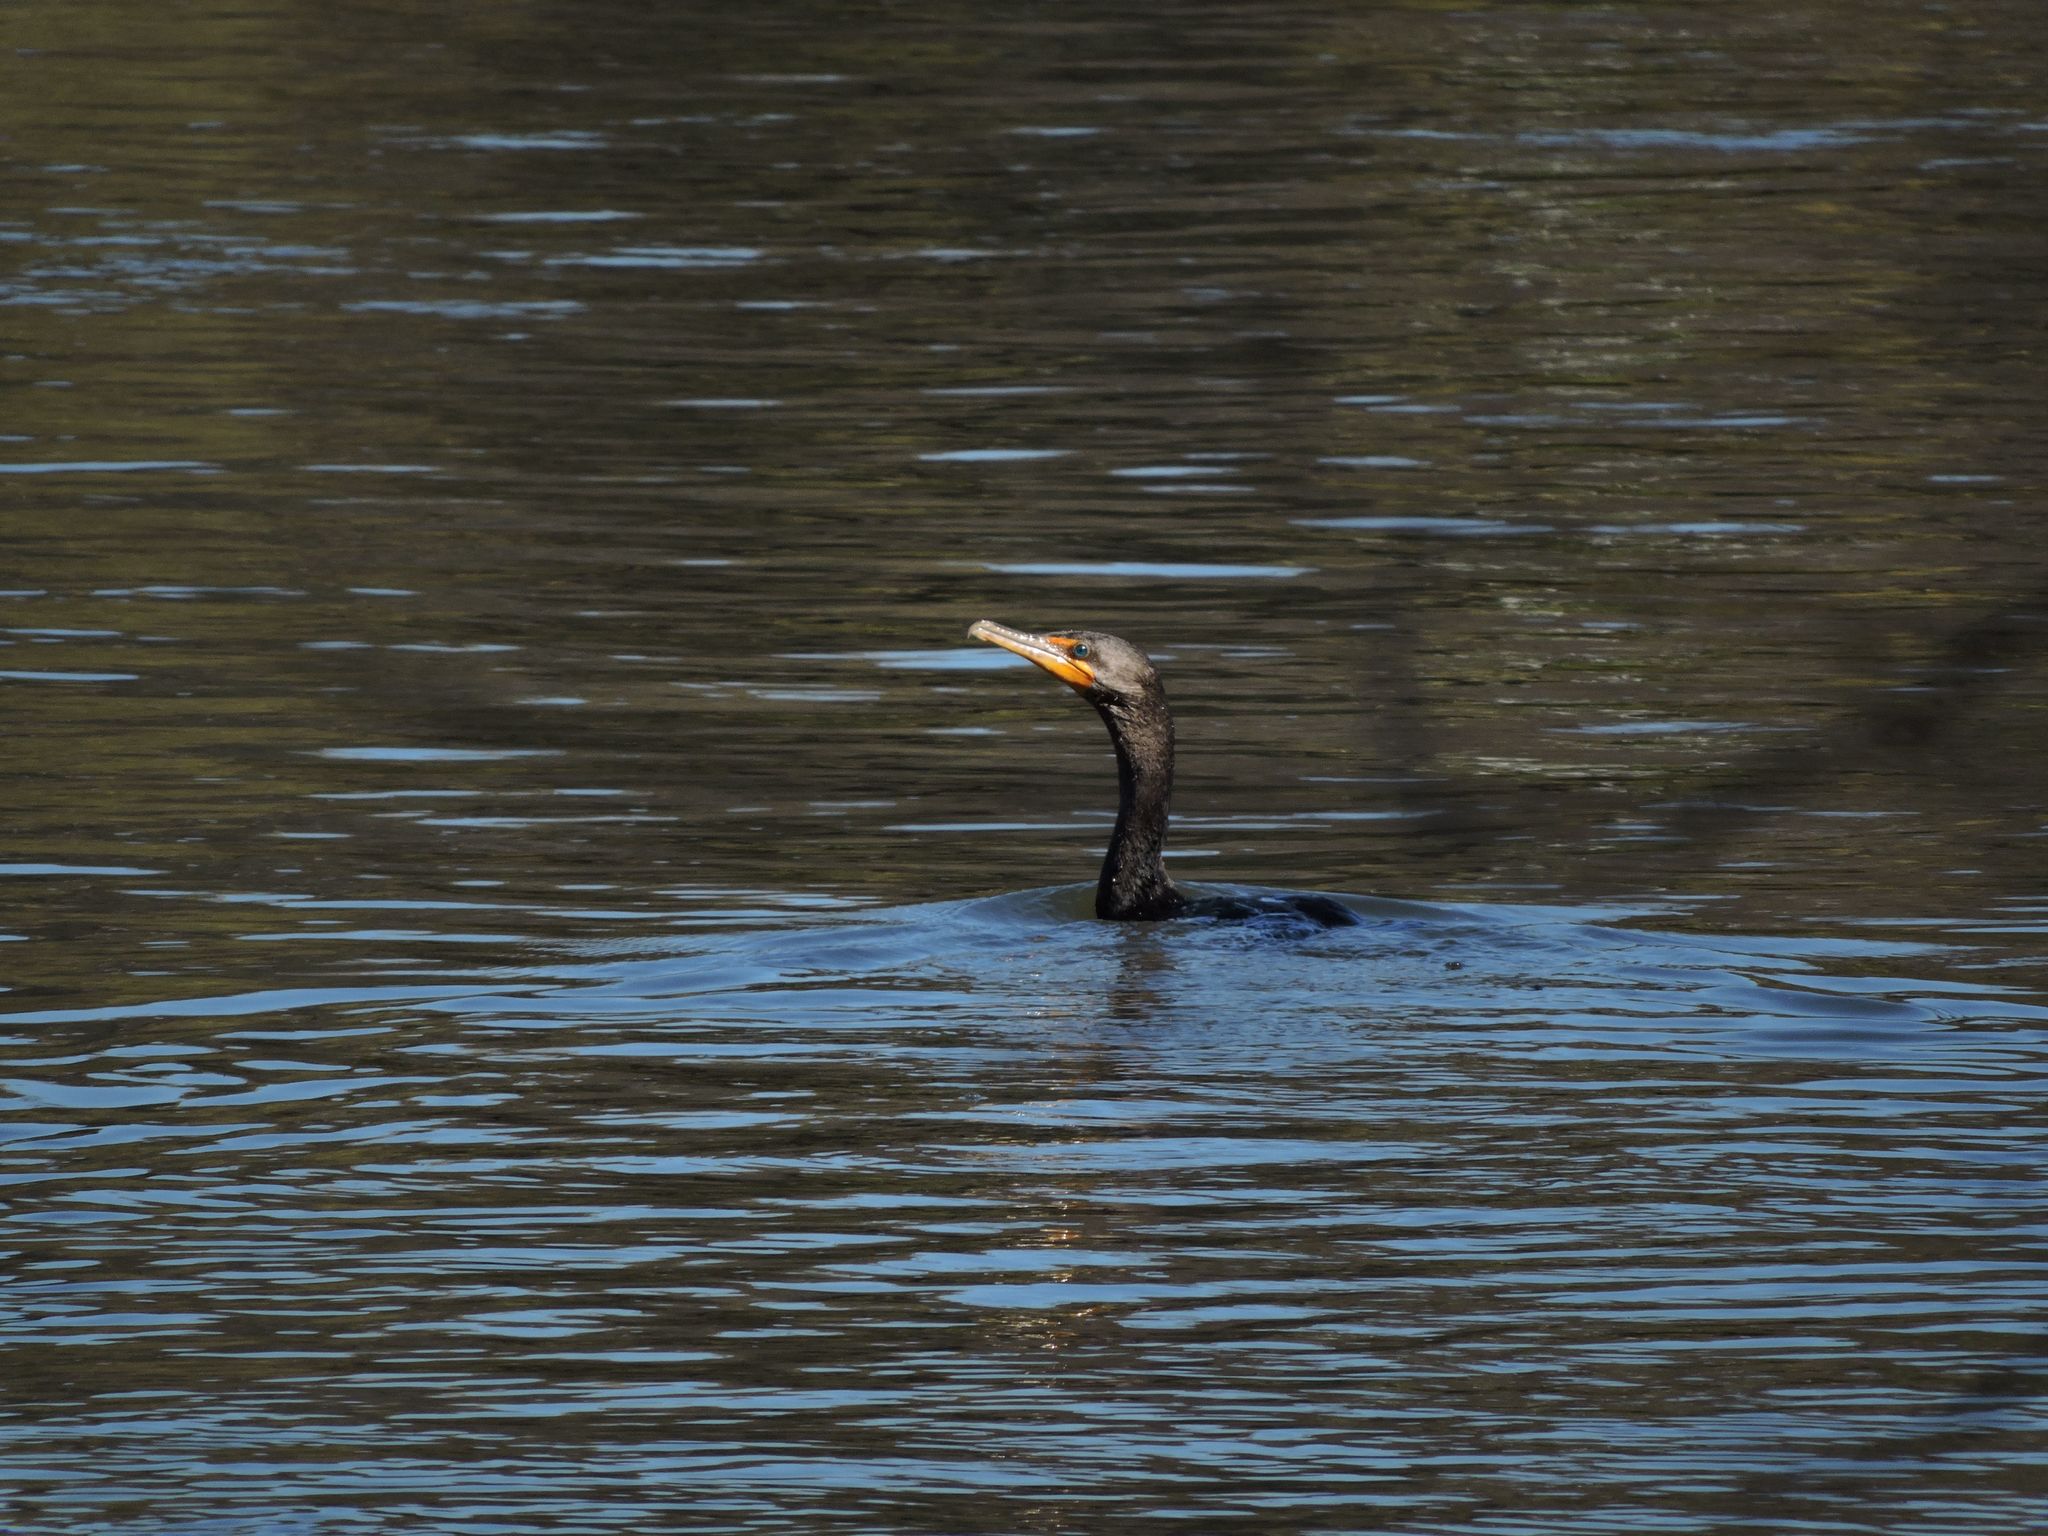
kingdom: Animalia
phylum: Chordata
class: Aves
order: Suliformes
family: Phalacrocoracidae
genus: Phalacrocorax
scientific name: Phalacrocorax auritus
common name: Double-crested cormorant
